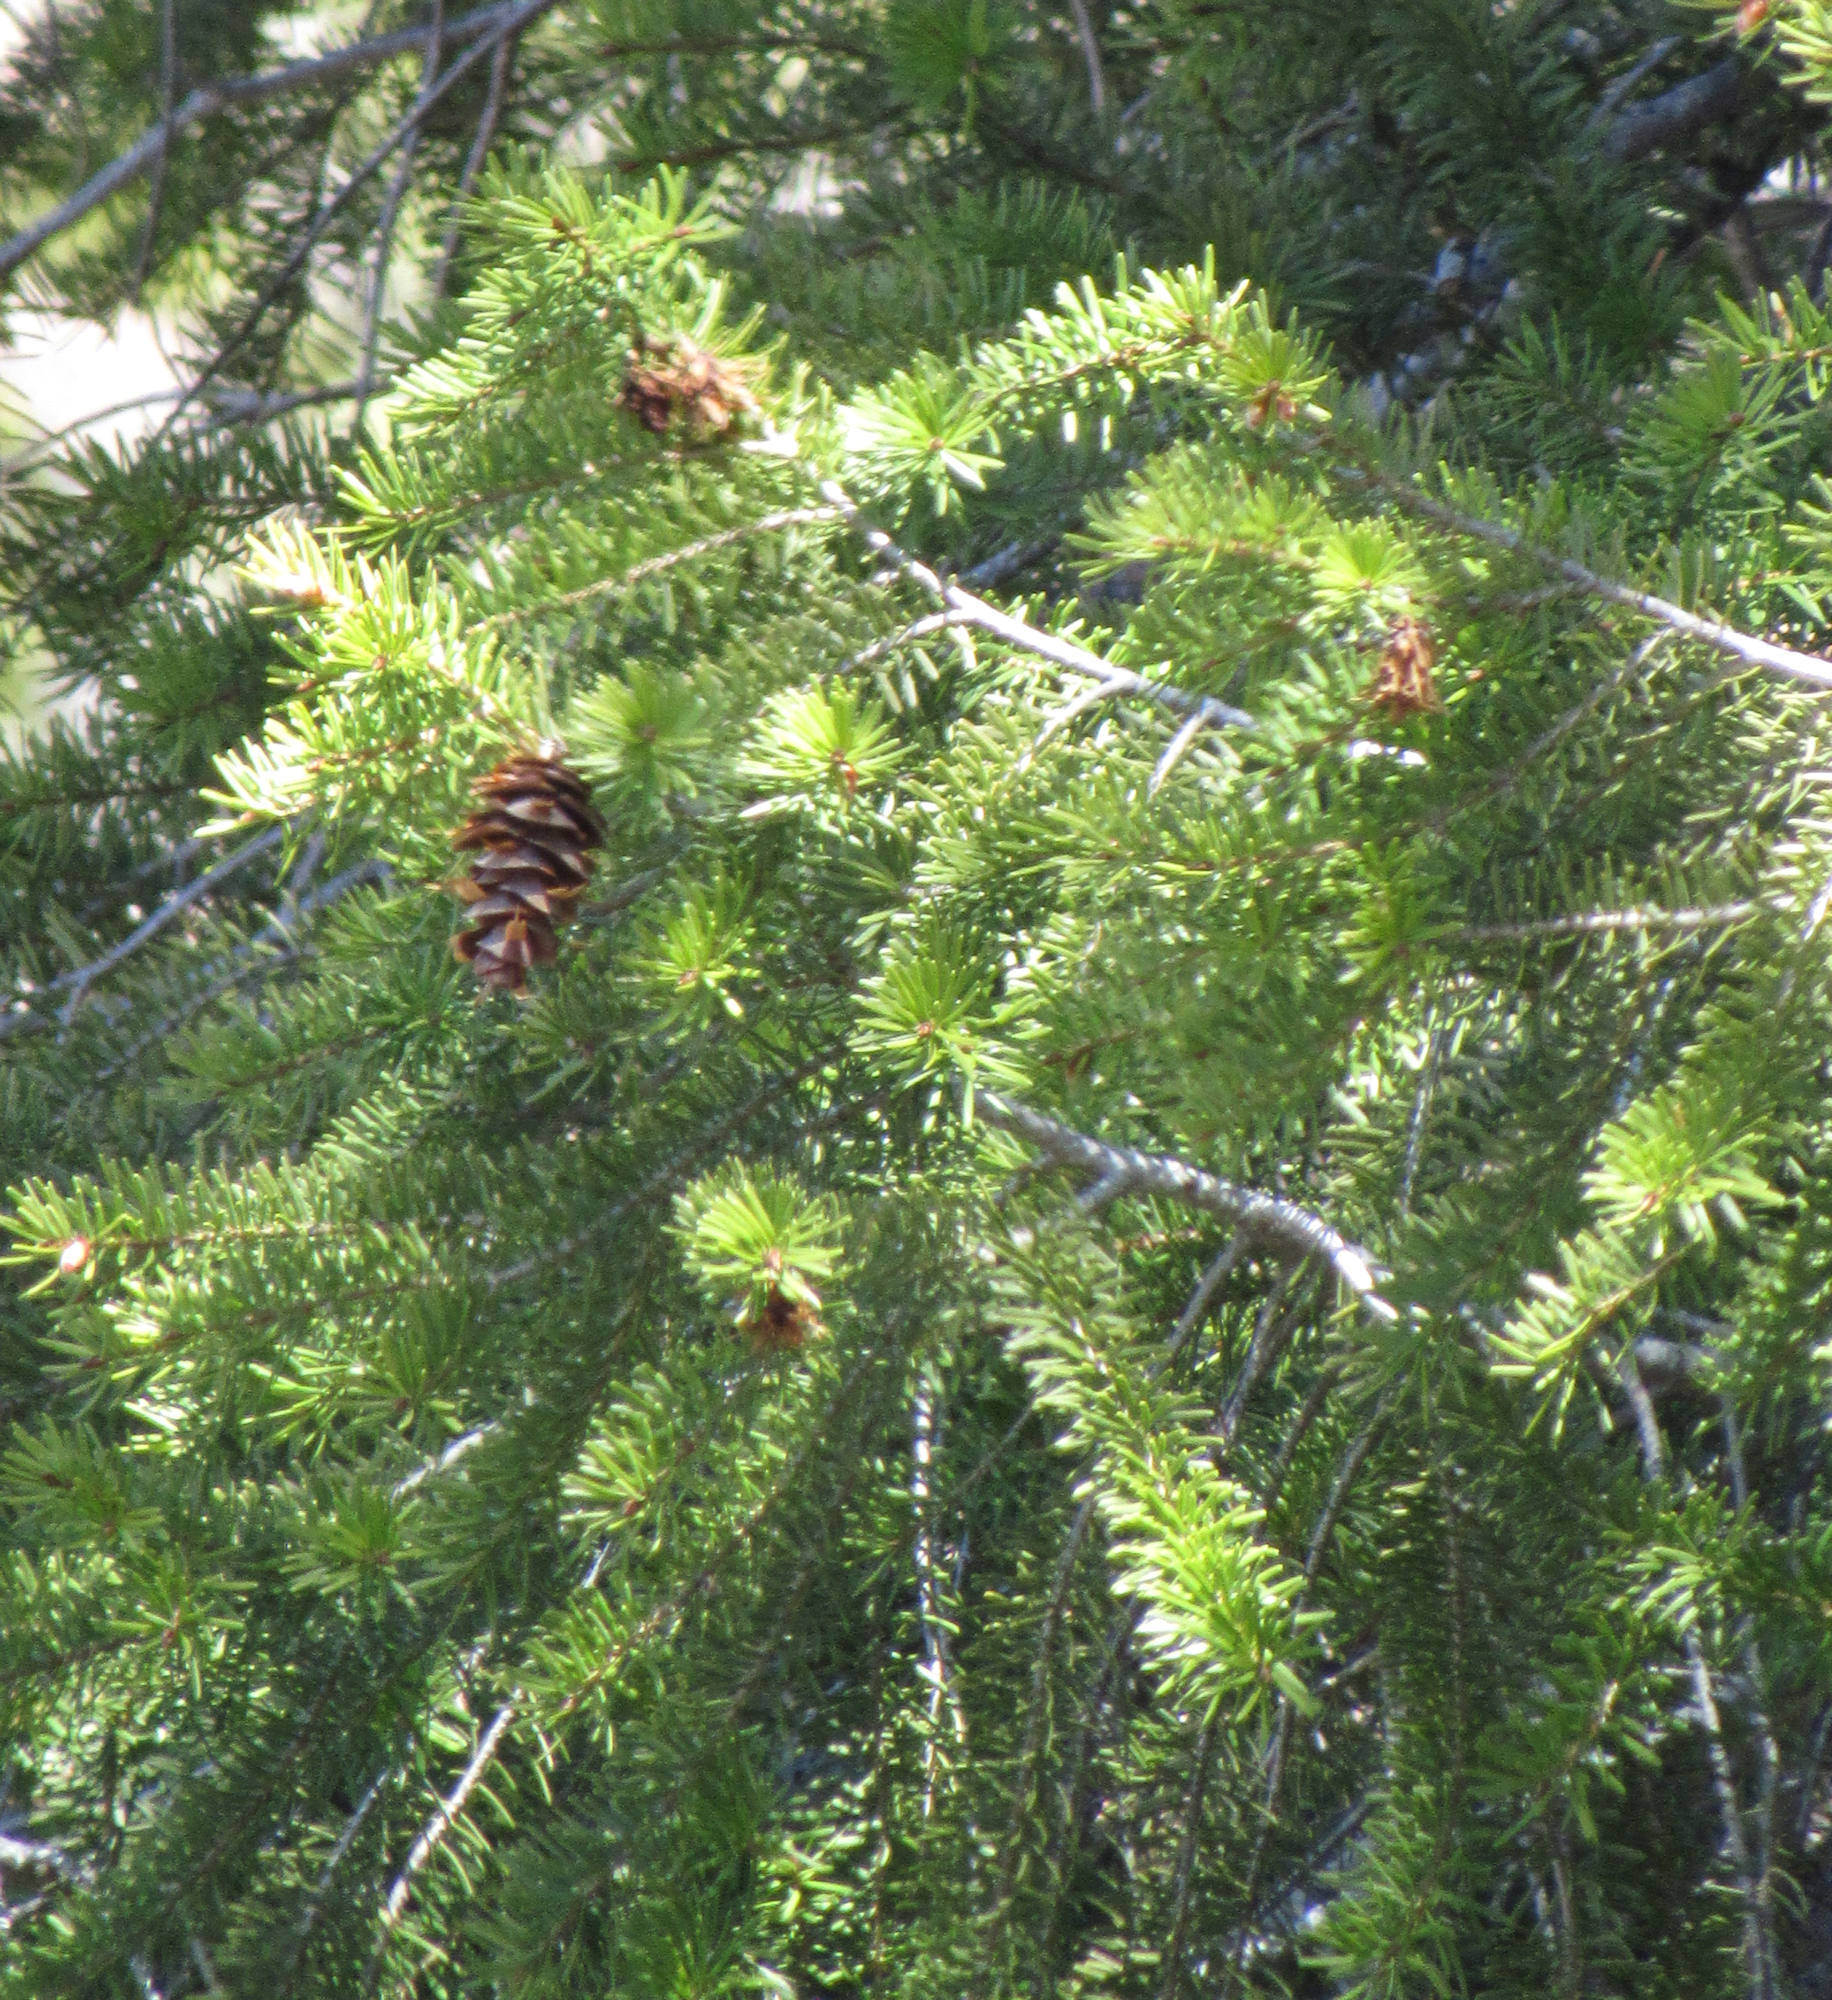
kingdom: Plantae
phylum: Tracheophyta
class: Pinopsida
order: Pinales
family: Pinaceae
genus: Pseudotsuga
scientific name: Pseudotsuga menziesii
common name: Douglas fir
